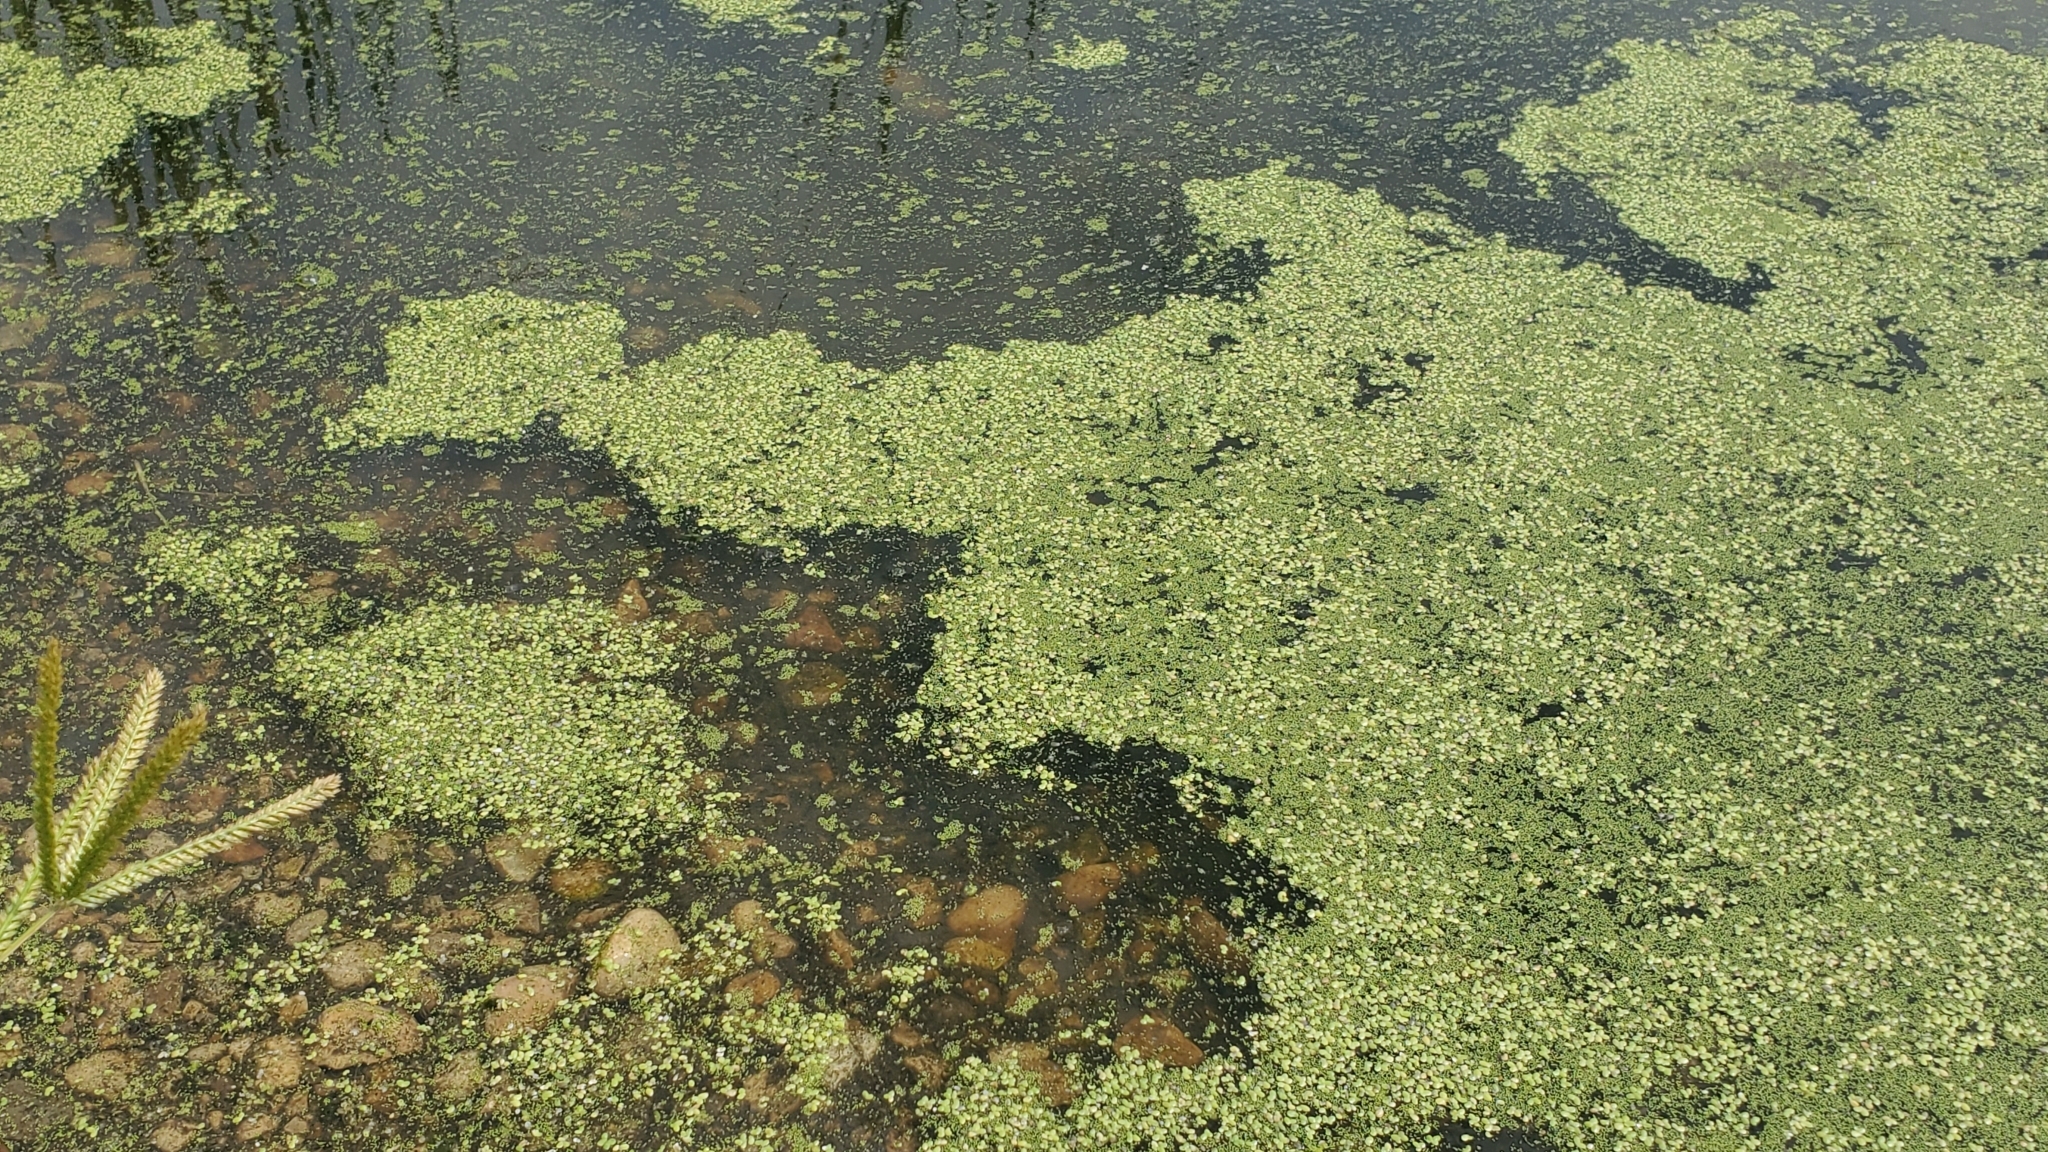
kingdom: Plantae
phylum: Tracheophyta
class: Liliopsida
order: Alismatales
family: Araceae
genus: Lemna
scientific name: Lemna minor
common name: Common duckweed
